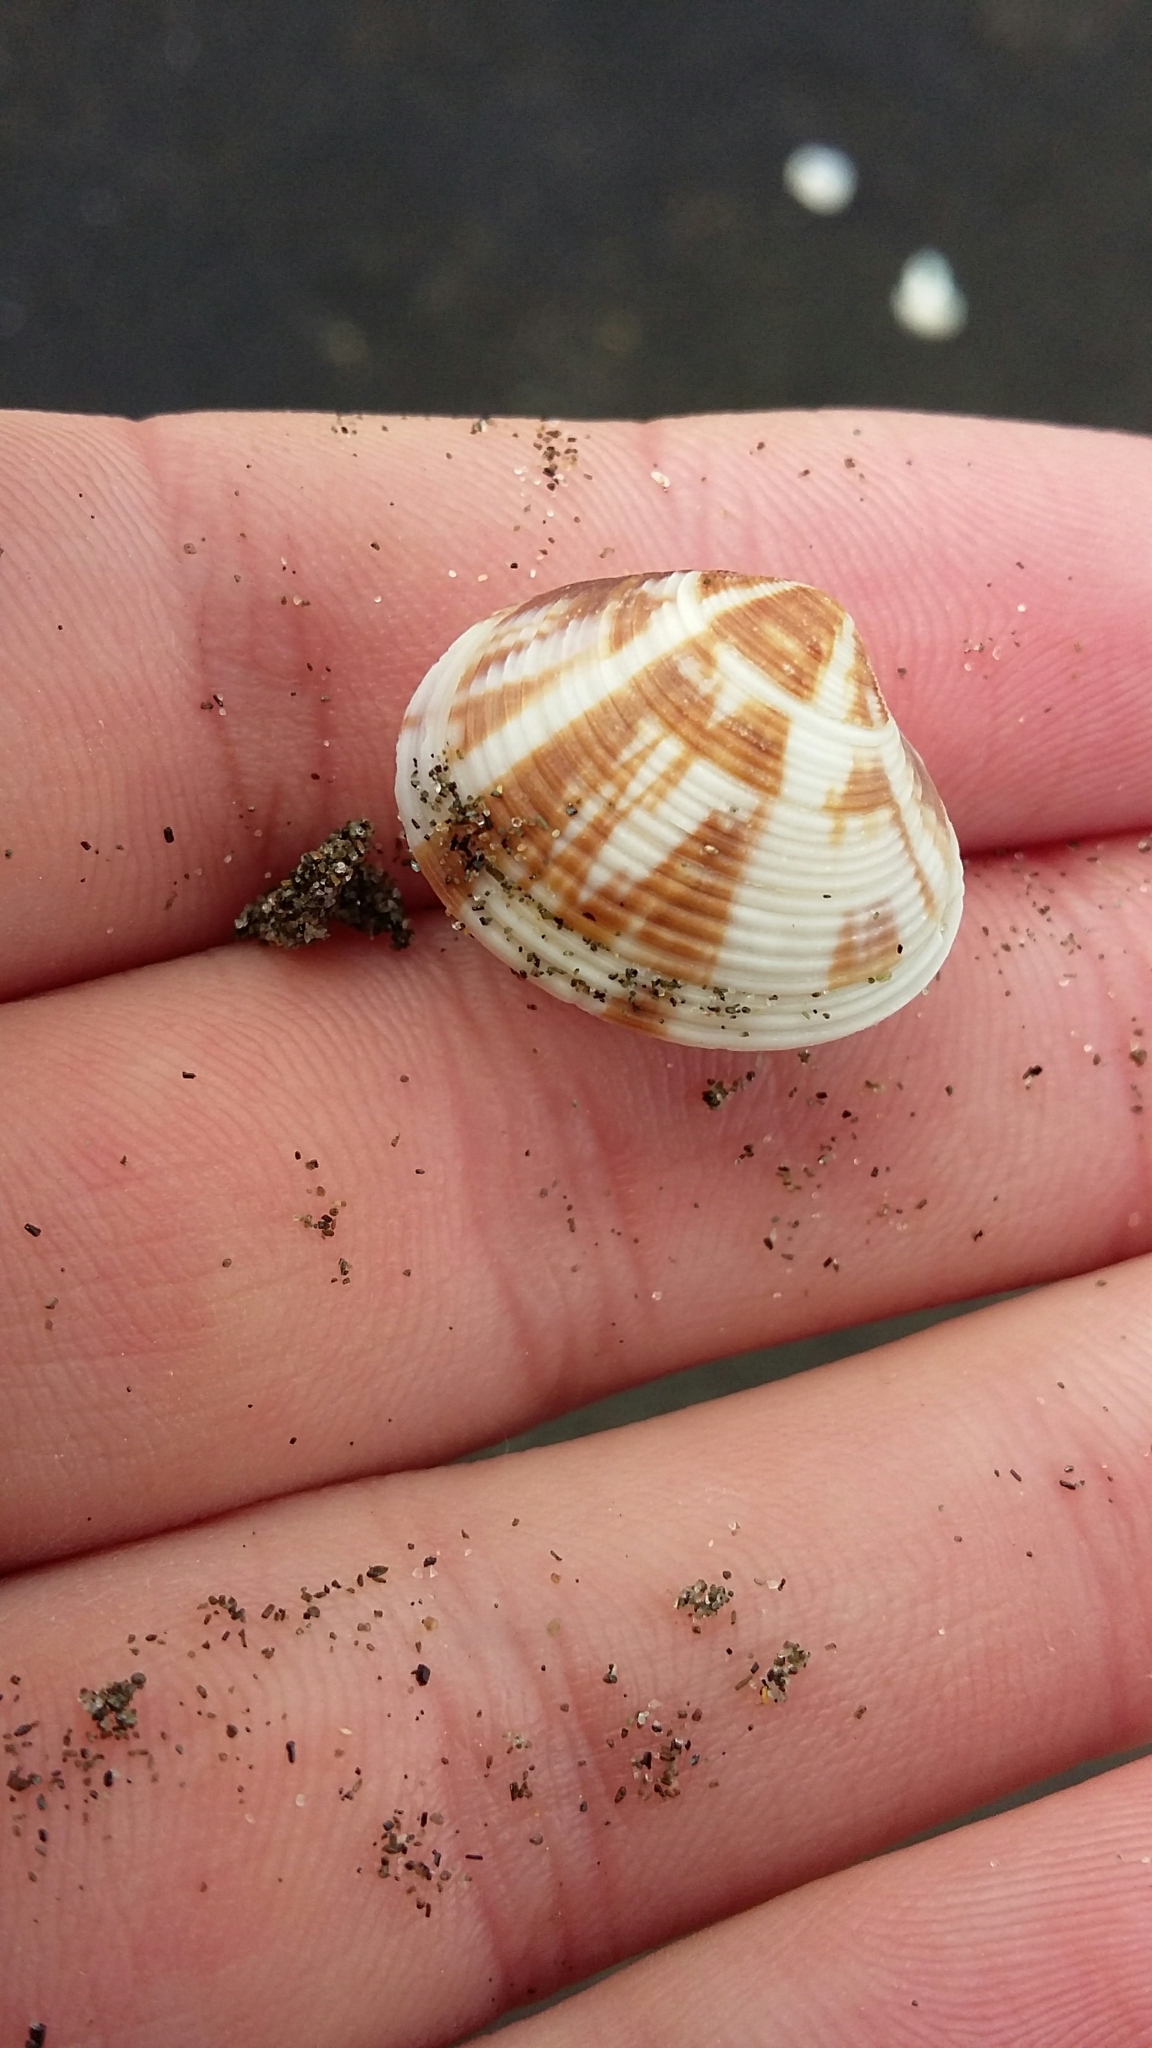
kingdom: Animalia
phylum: Mollusca
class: Bivalvia
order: Venerida
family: Veneridae
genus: Tawera
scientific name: Tawera spissa
